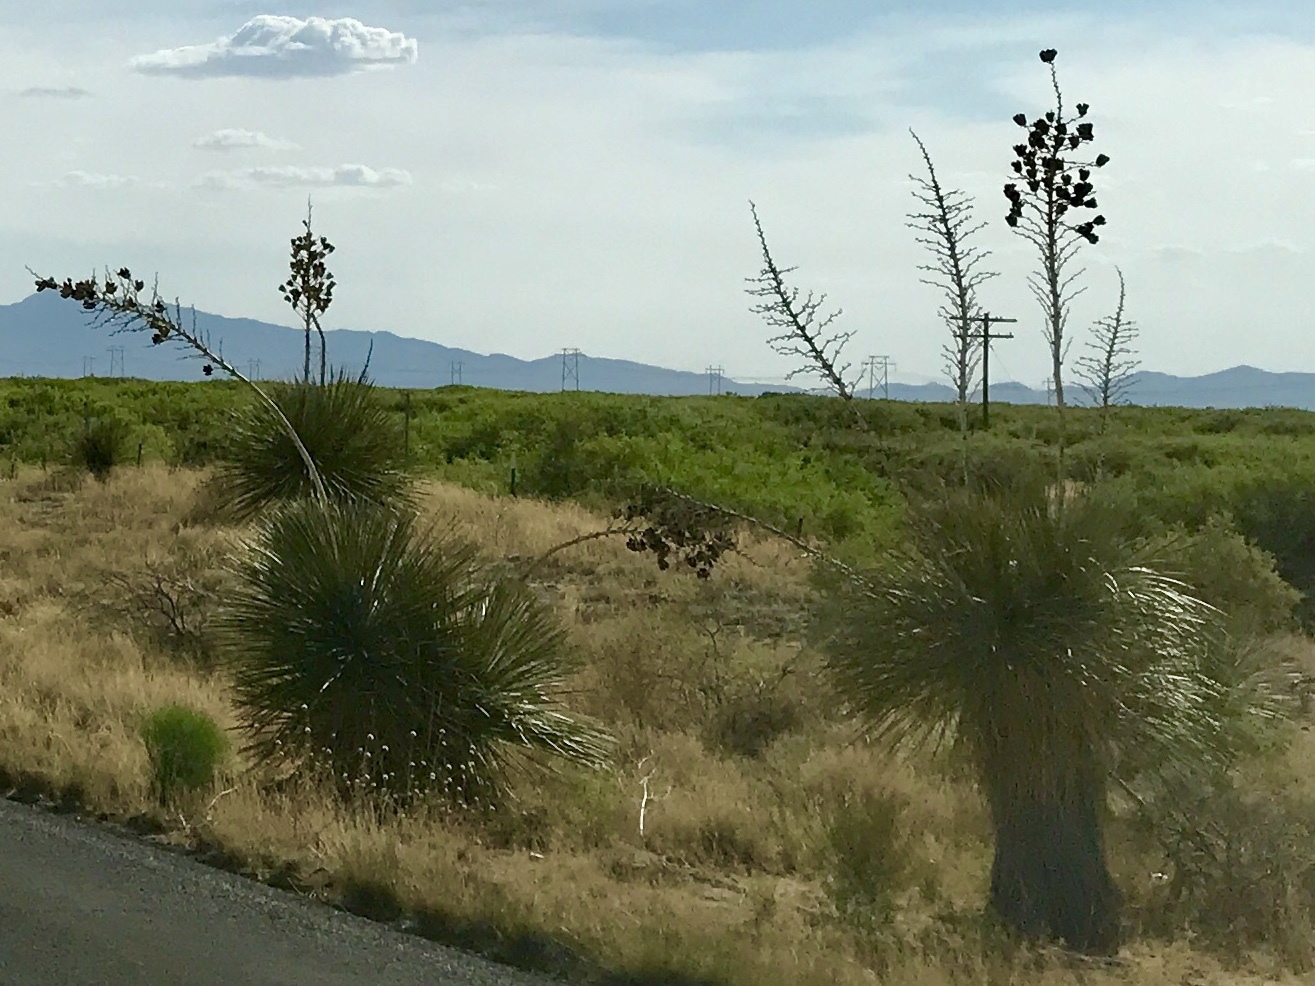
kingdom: Plantae
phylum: Tracheophyta
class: Liliopsida
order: Asparagales
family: Asparagaceae
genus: Yucca
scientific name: Yucca elata
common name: Palmella
